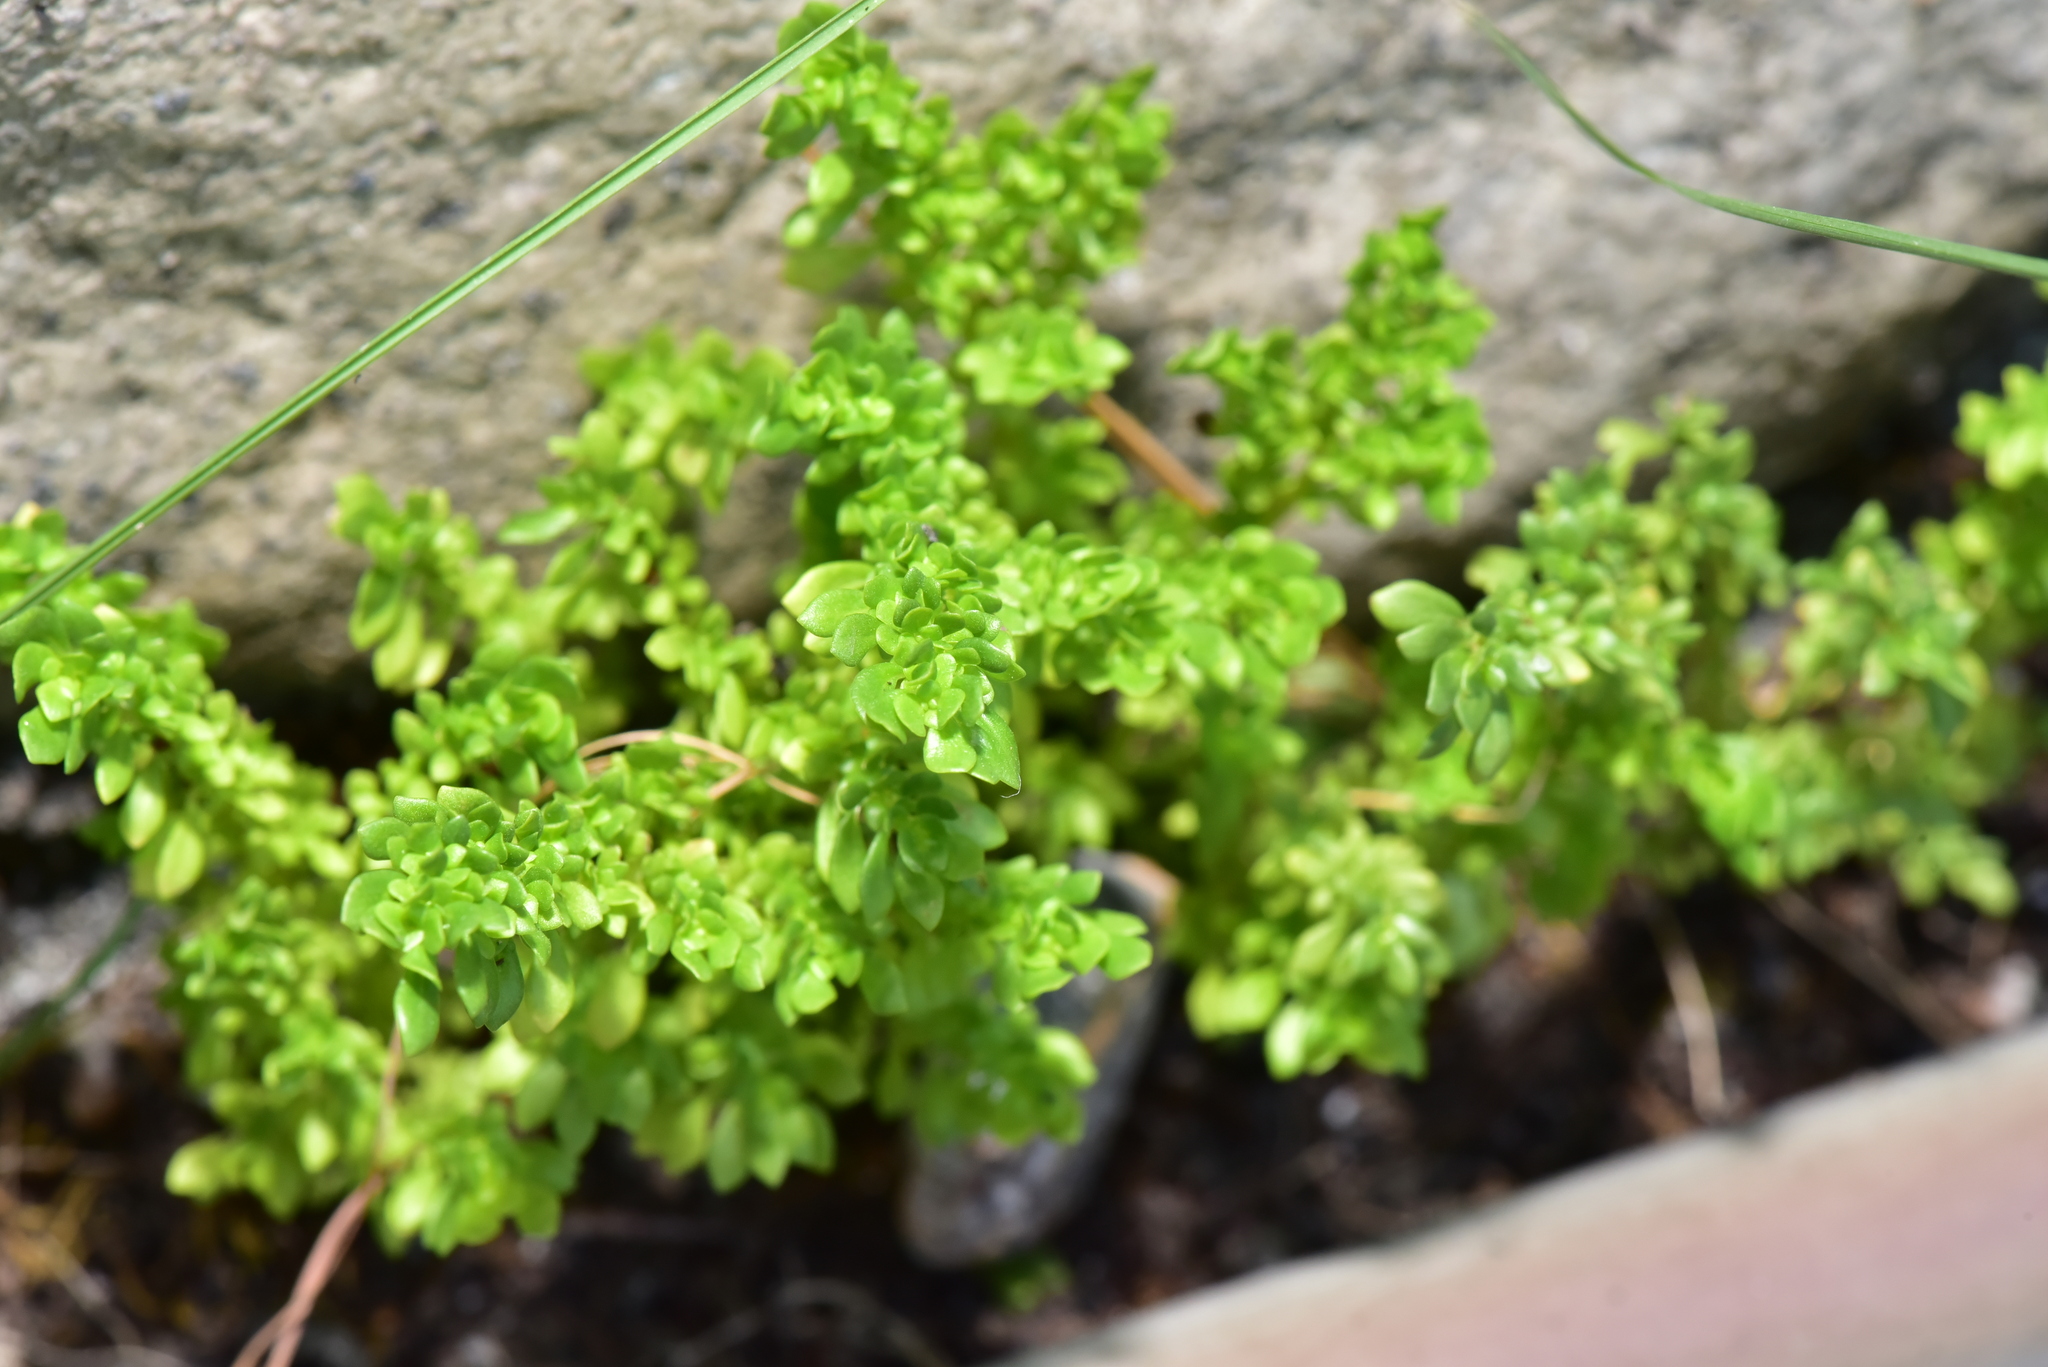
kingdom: Plantae
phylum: Tracheophyta
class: Magnoliopsida
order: Rosales
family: Urticaceae
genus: Pilea
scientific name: Pilea microphylla
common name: Artillery-plant
